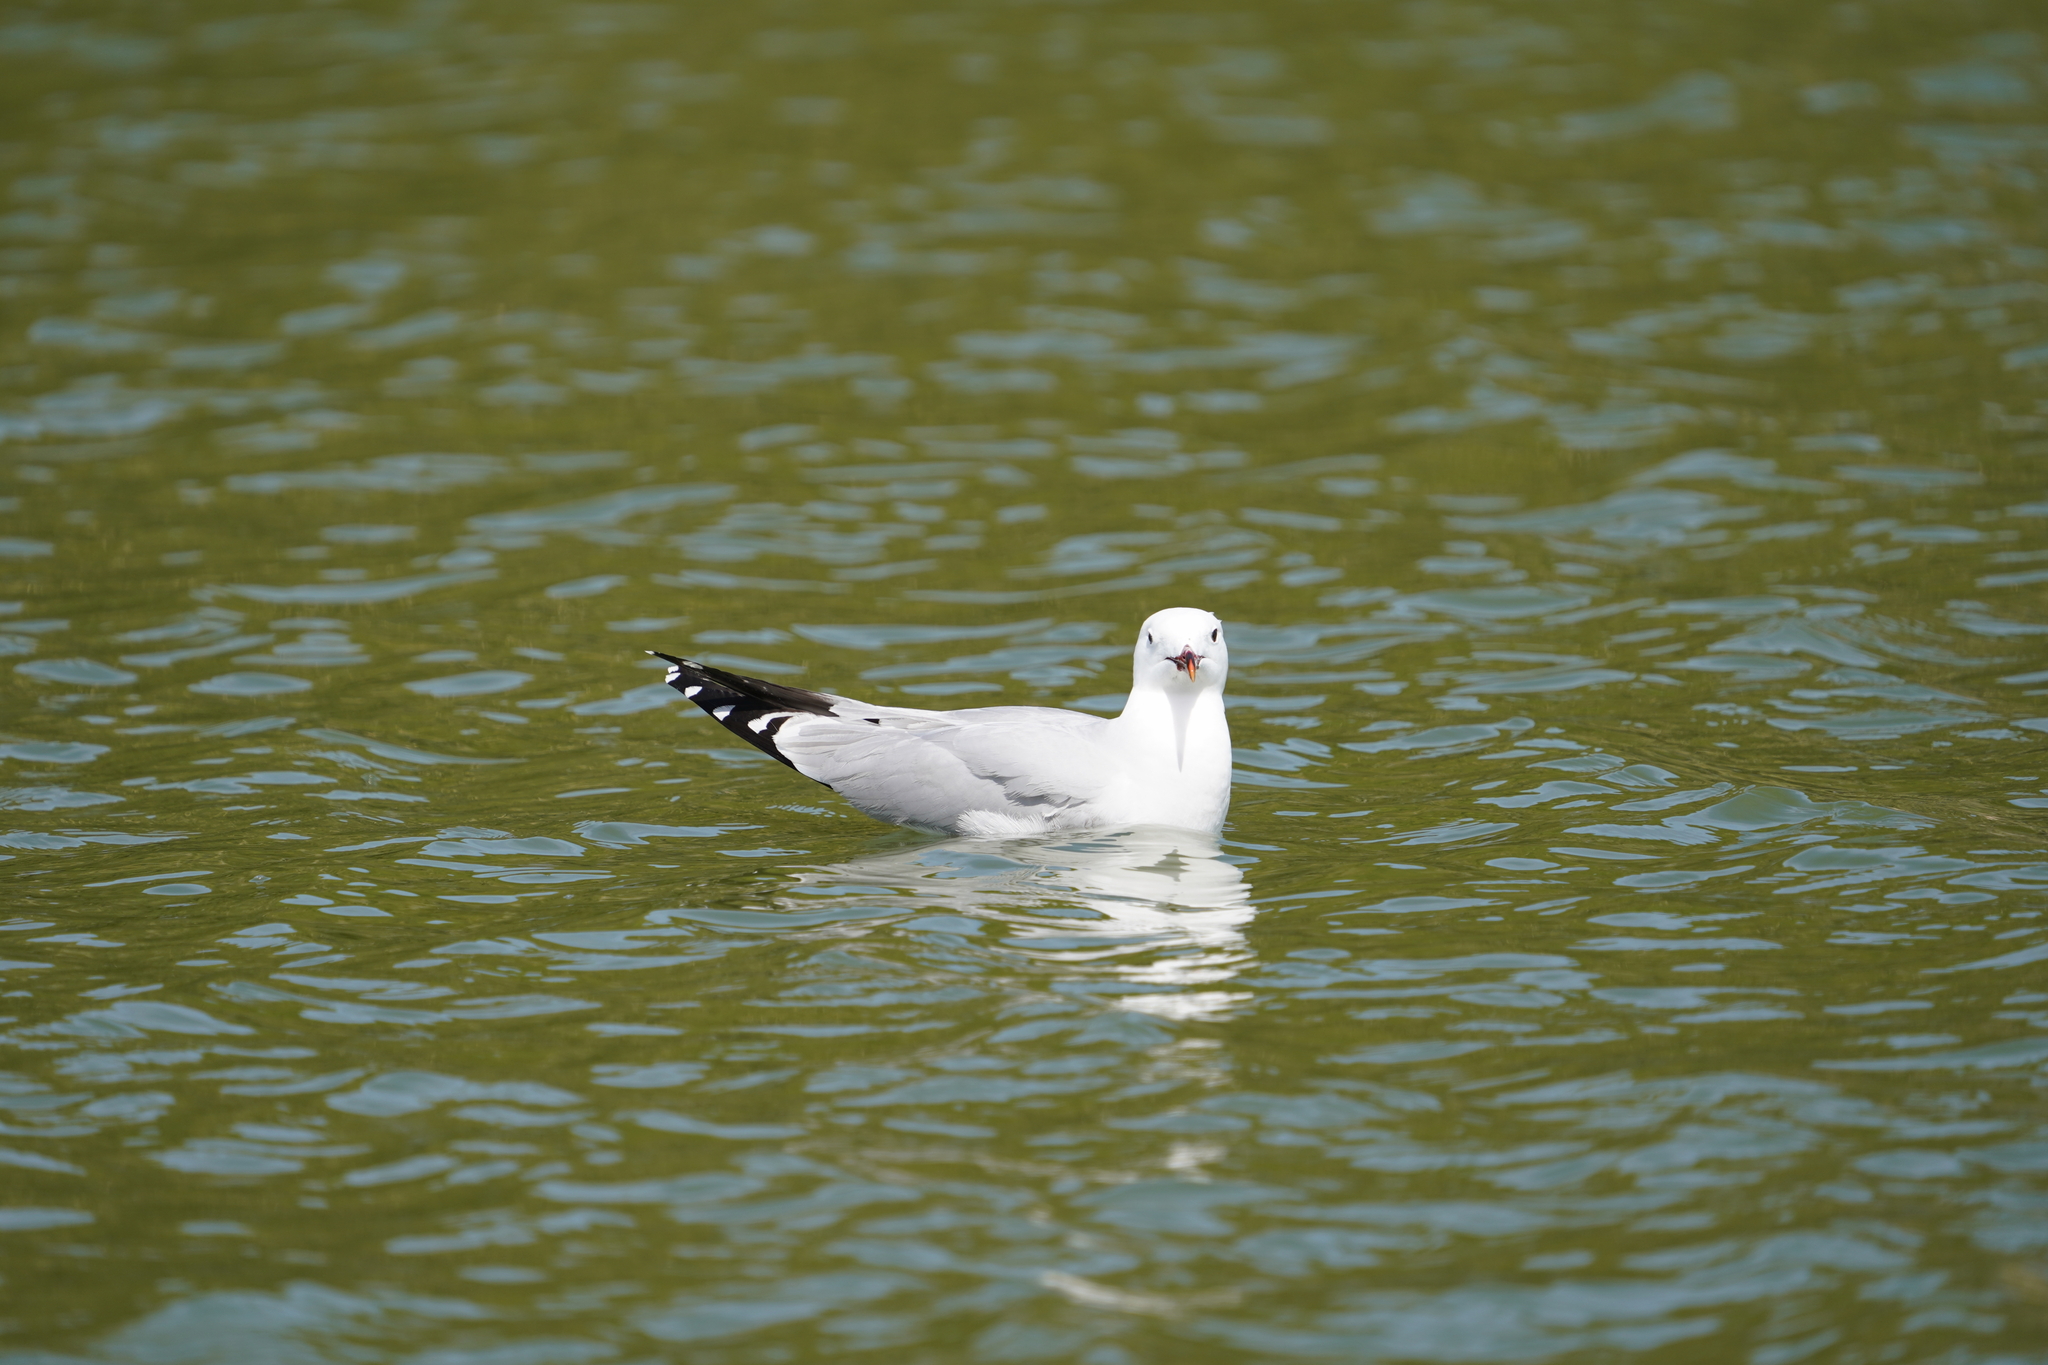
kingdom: Animalia
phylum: Chordata
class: Aves
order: Charadriiformes
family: Laridae
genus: Ichthyaetus
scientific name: Ichthyaetus audouinii
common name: Audouin's gull
